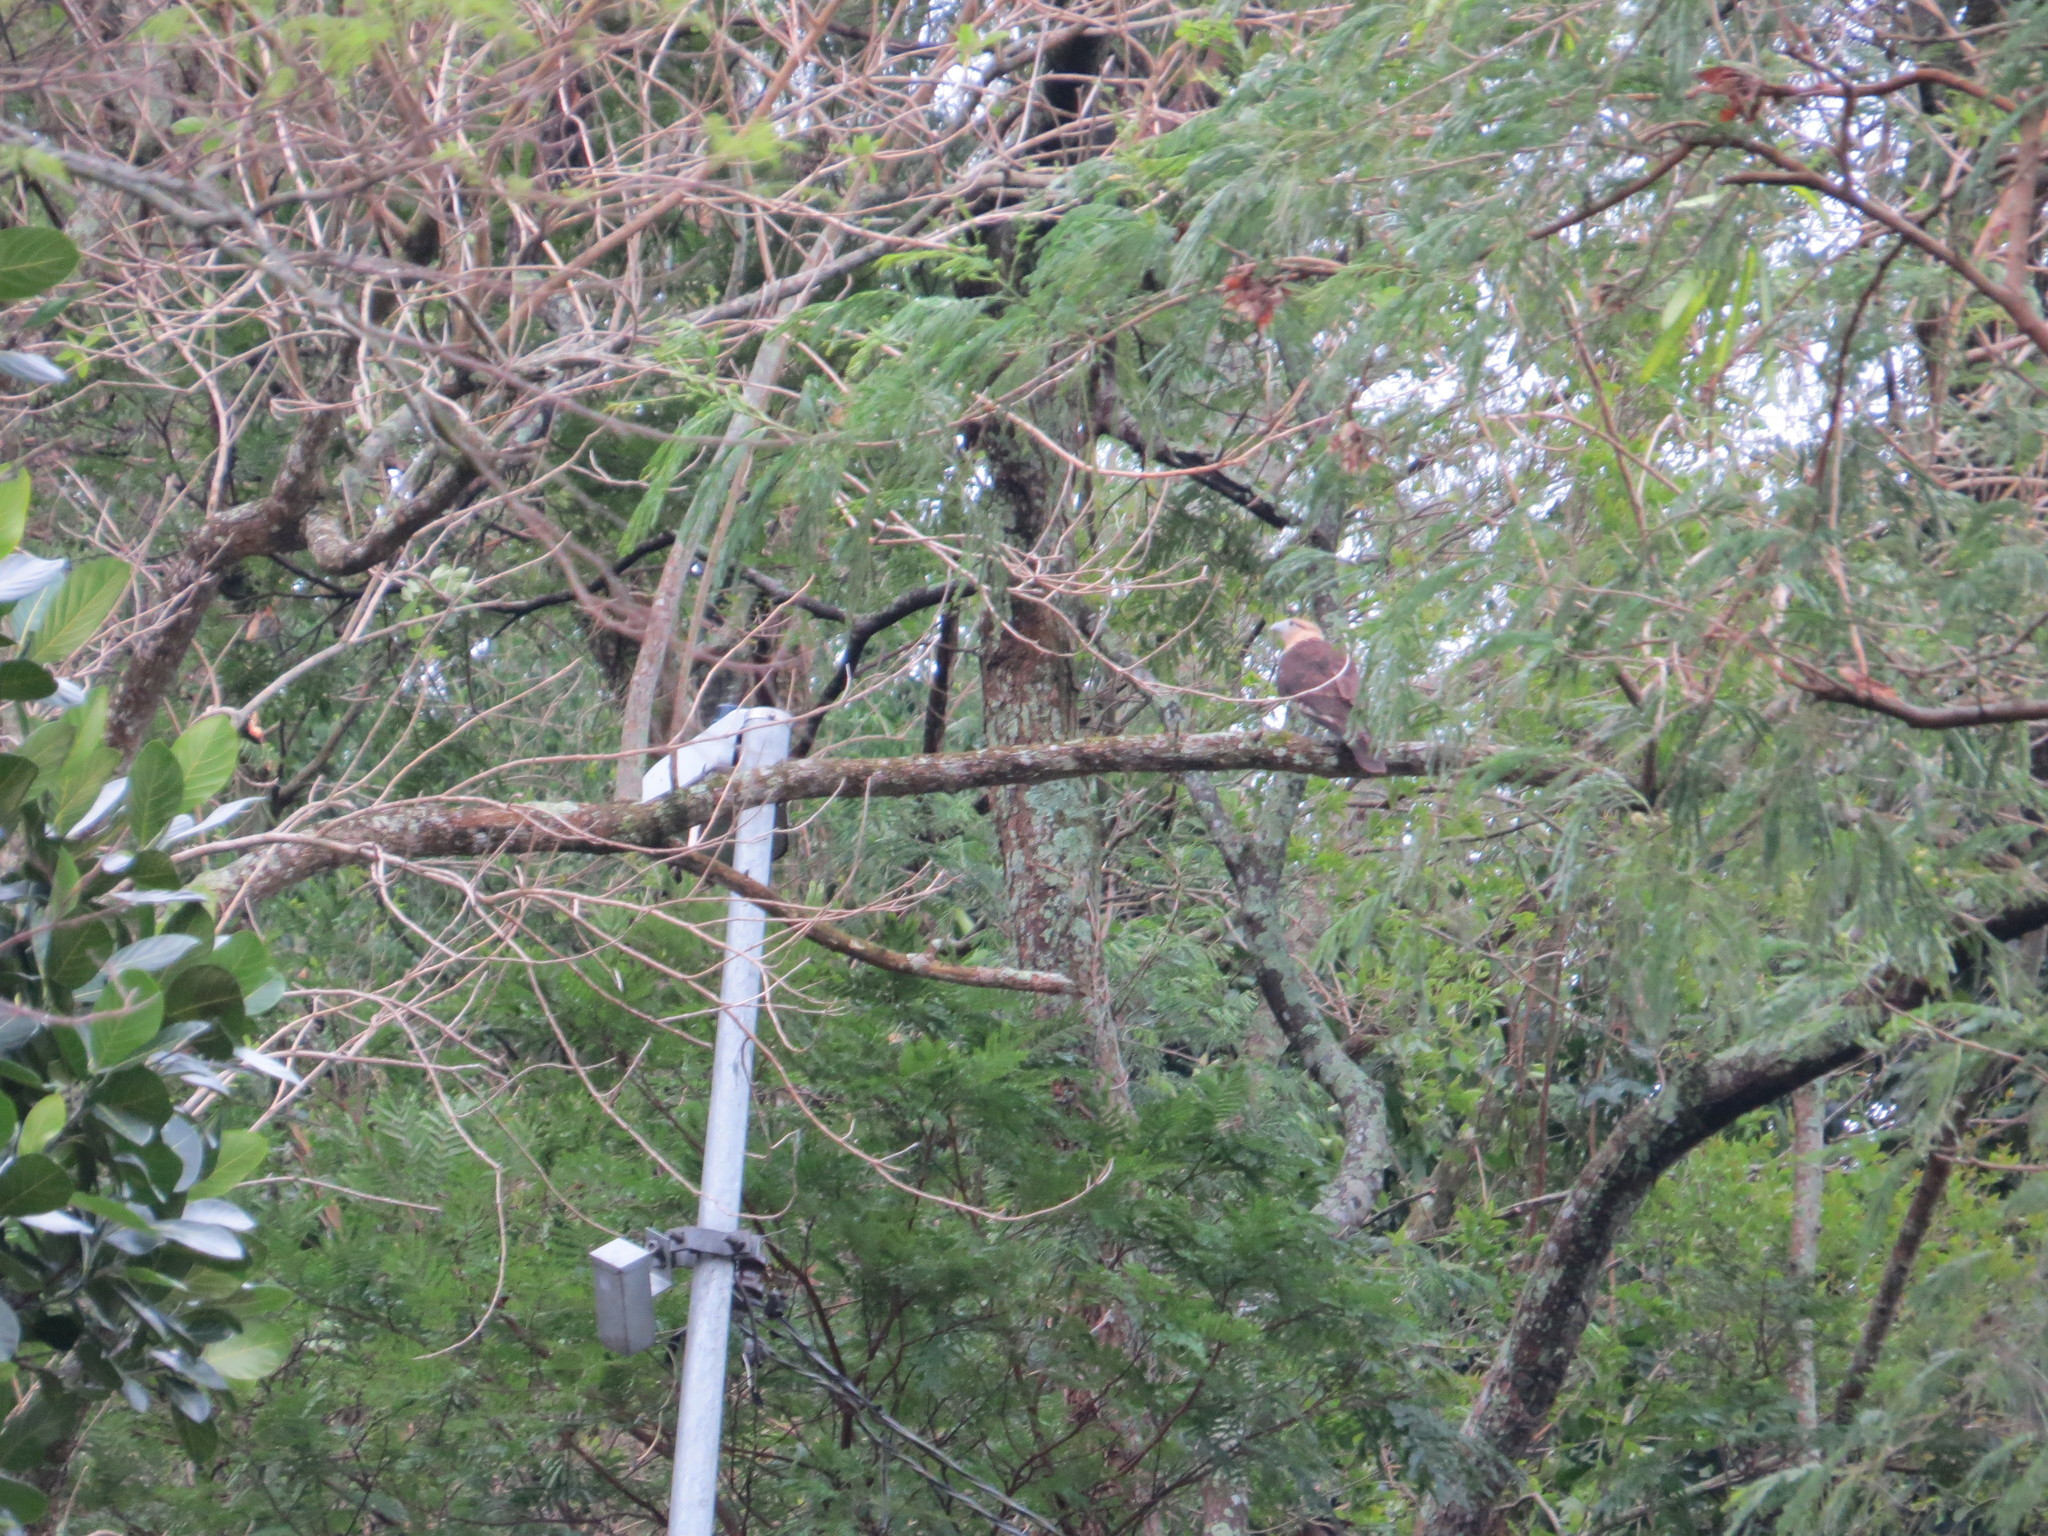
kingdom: Animalia
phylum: Chordata
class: Aves
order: Falconiformes
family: Falconidae
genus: Daptrius
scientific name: Daptrius
